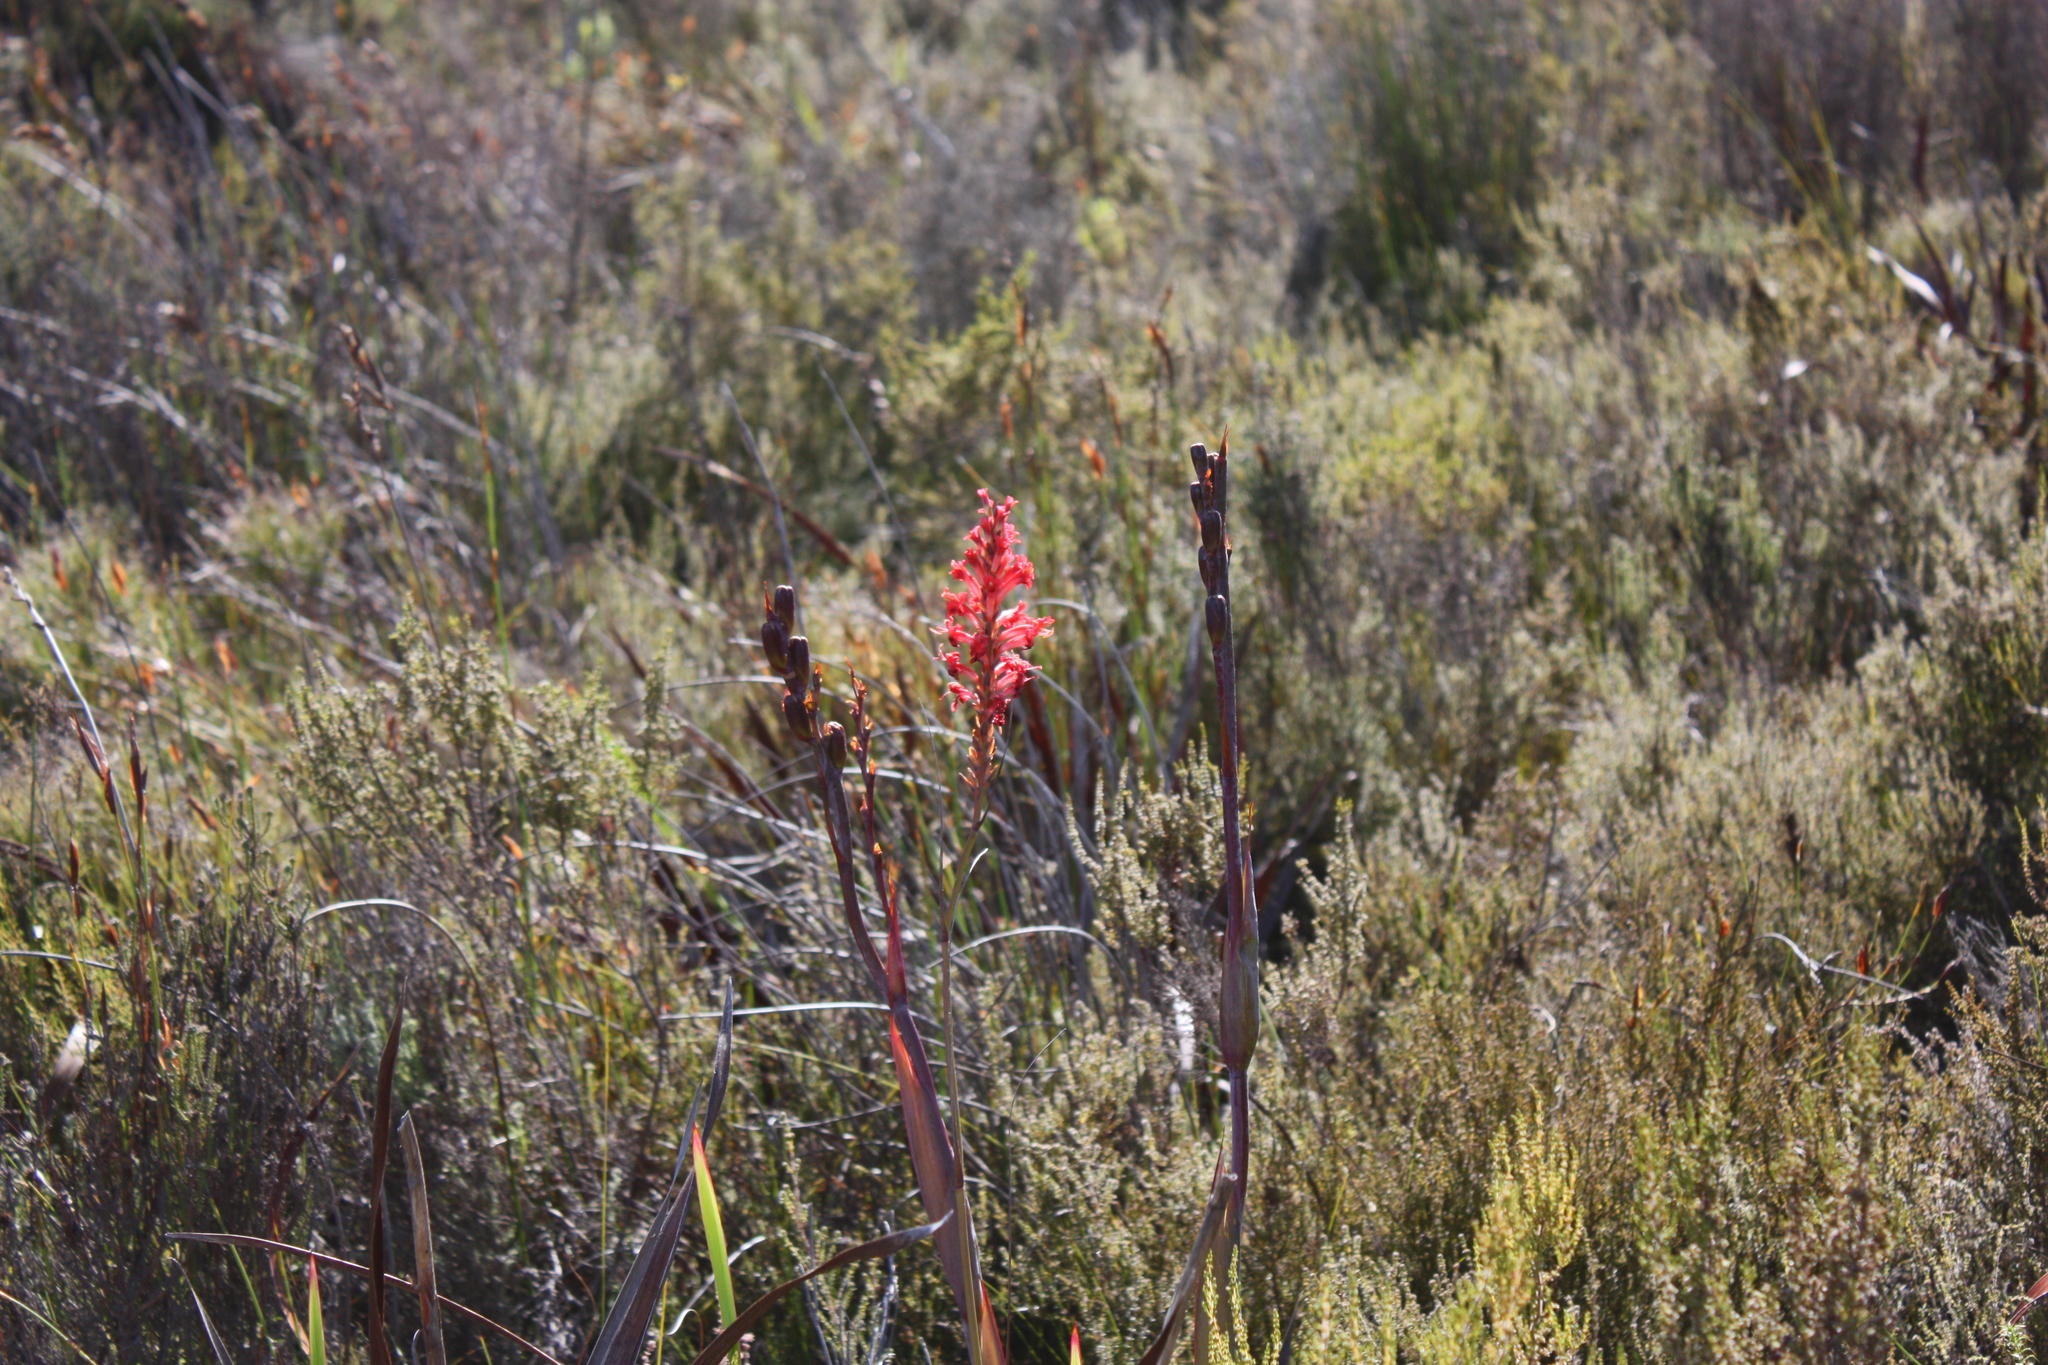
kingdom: Plantae
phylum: Tracheophyta
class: Liliopsida
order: Asparagales
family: Iridaceae
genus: Tritoniopsis
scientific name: Tritoniopsis triticea
